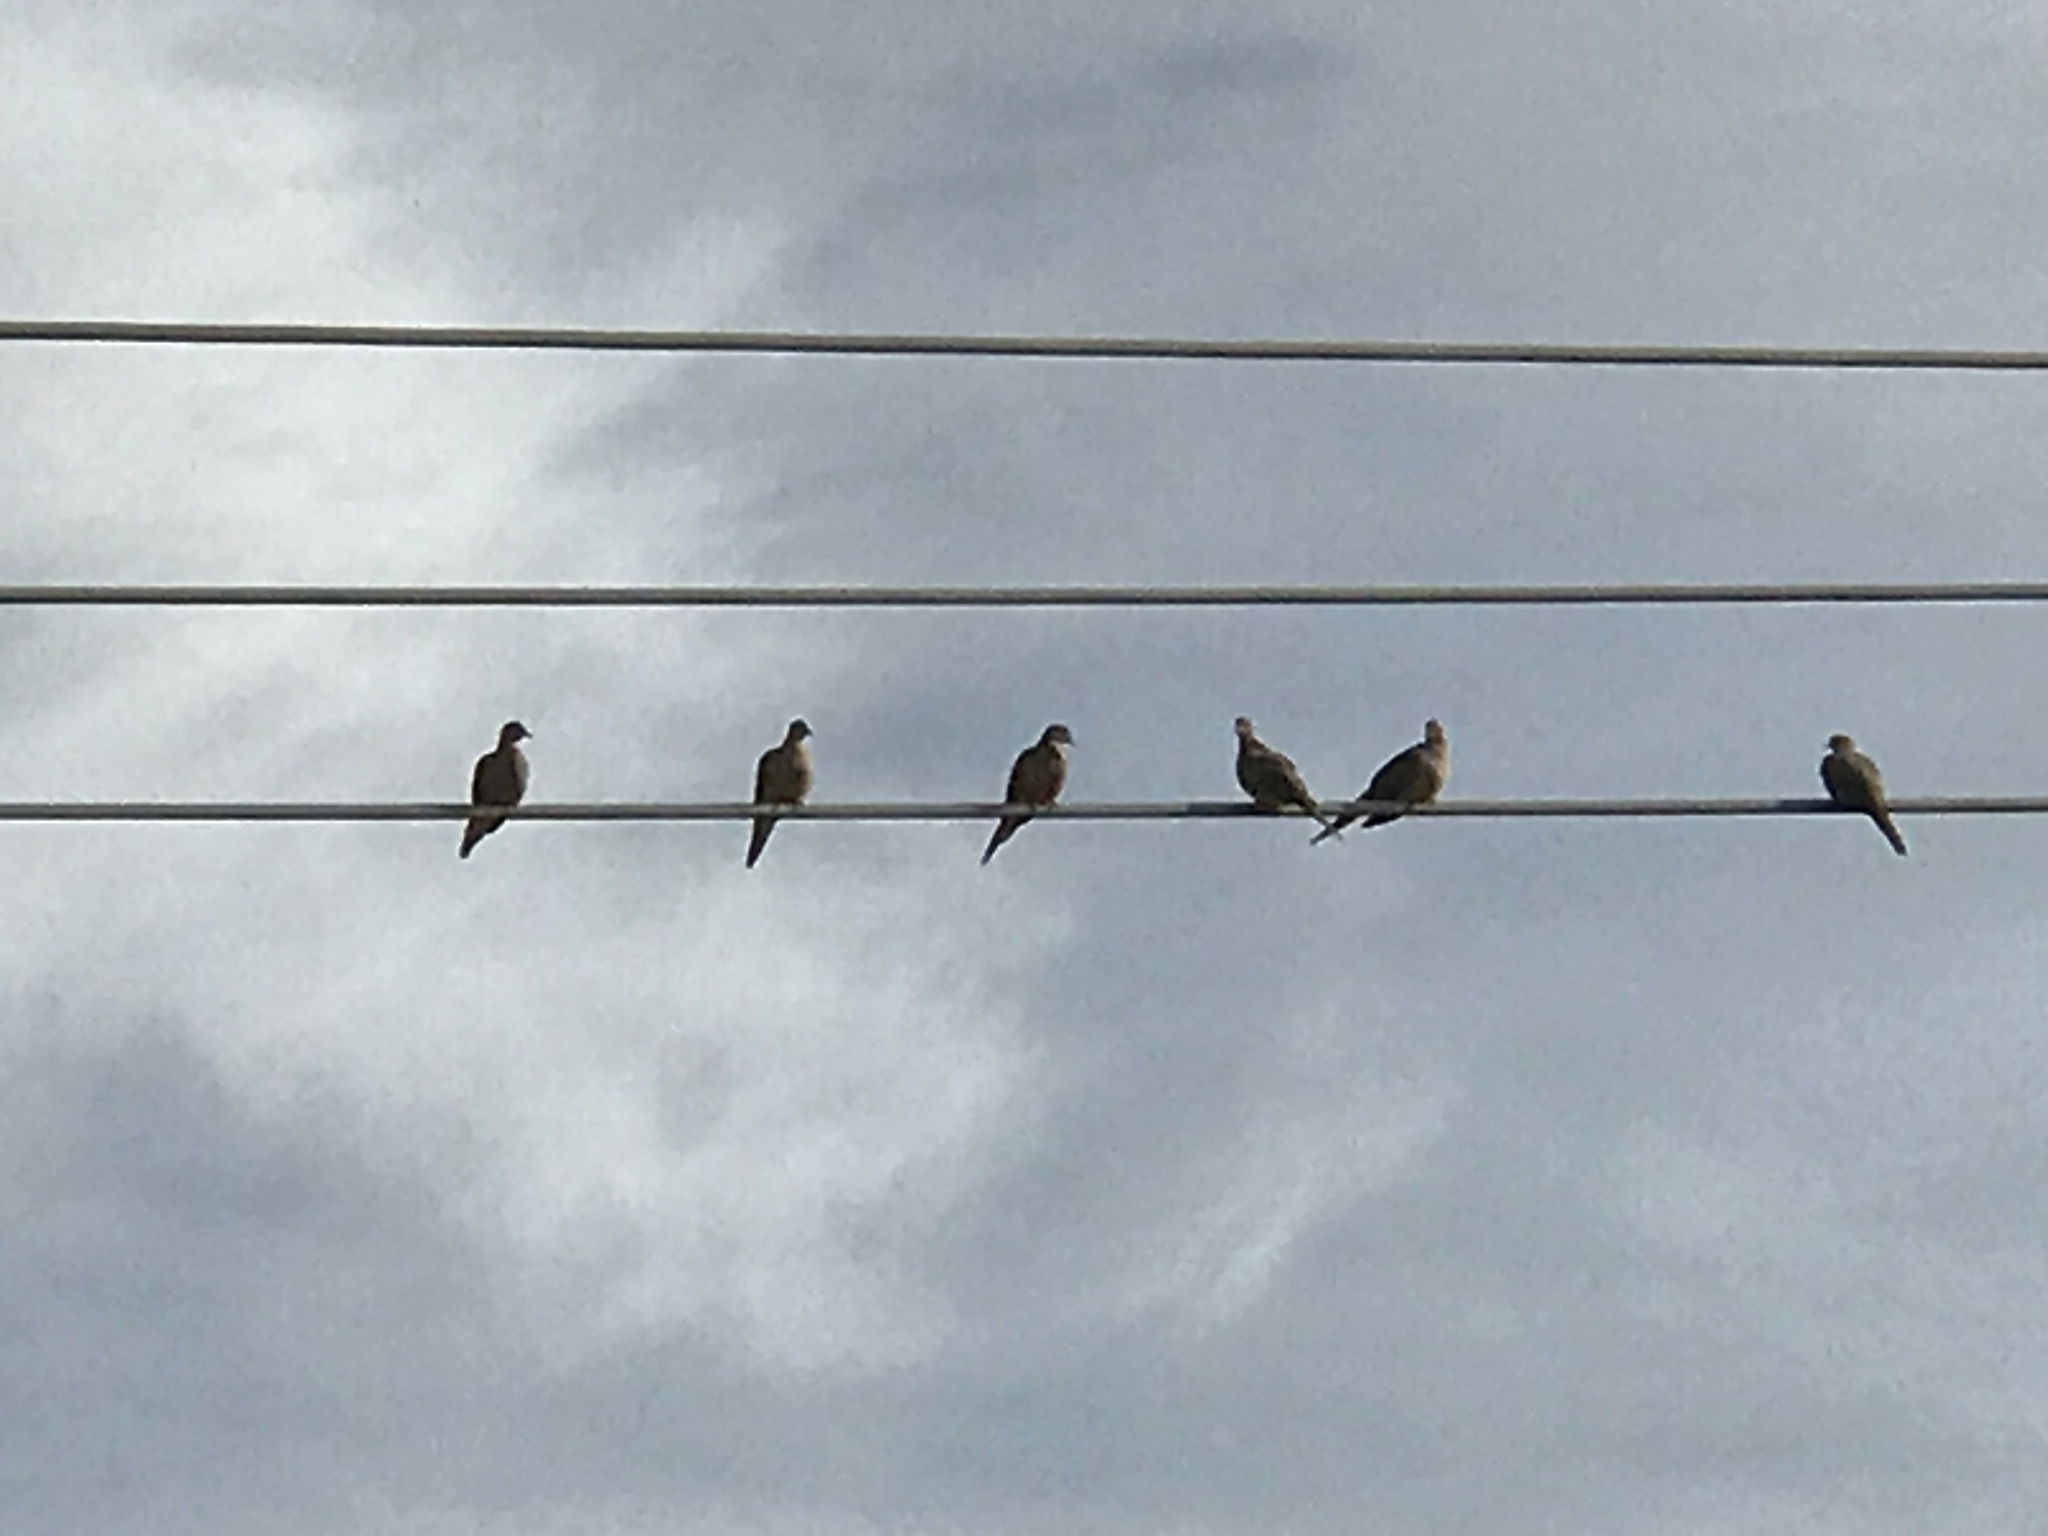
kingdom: Animalia
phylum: Chordata
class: Aves
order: Columbiformes
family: Columbidae
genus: Zenaida
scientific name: Zenaida macroura
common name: Mourning dove
